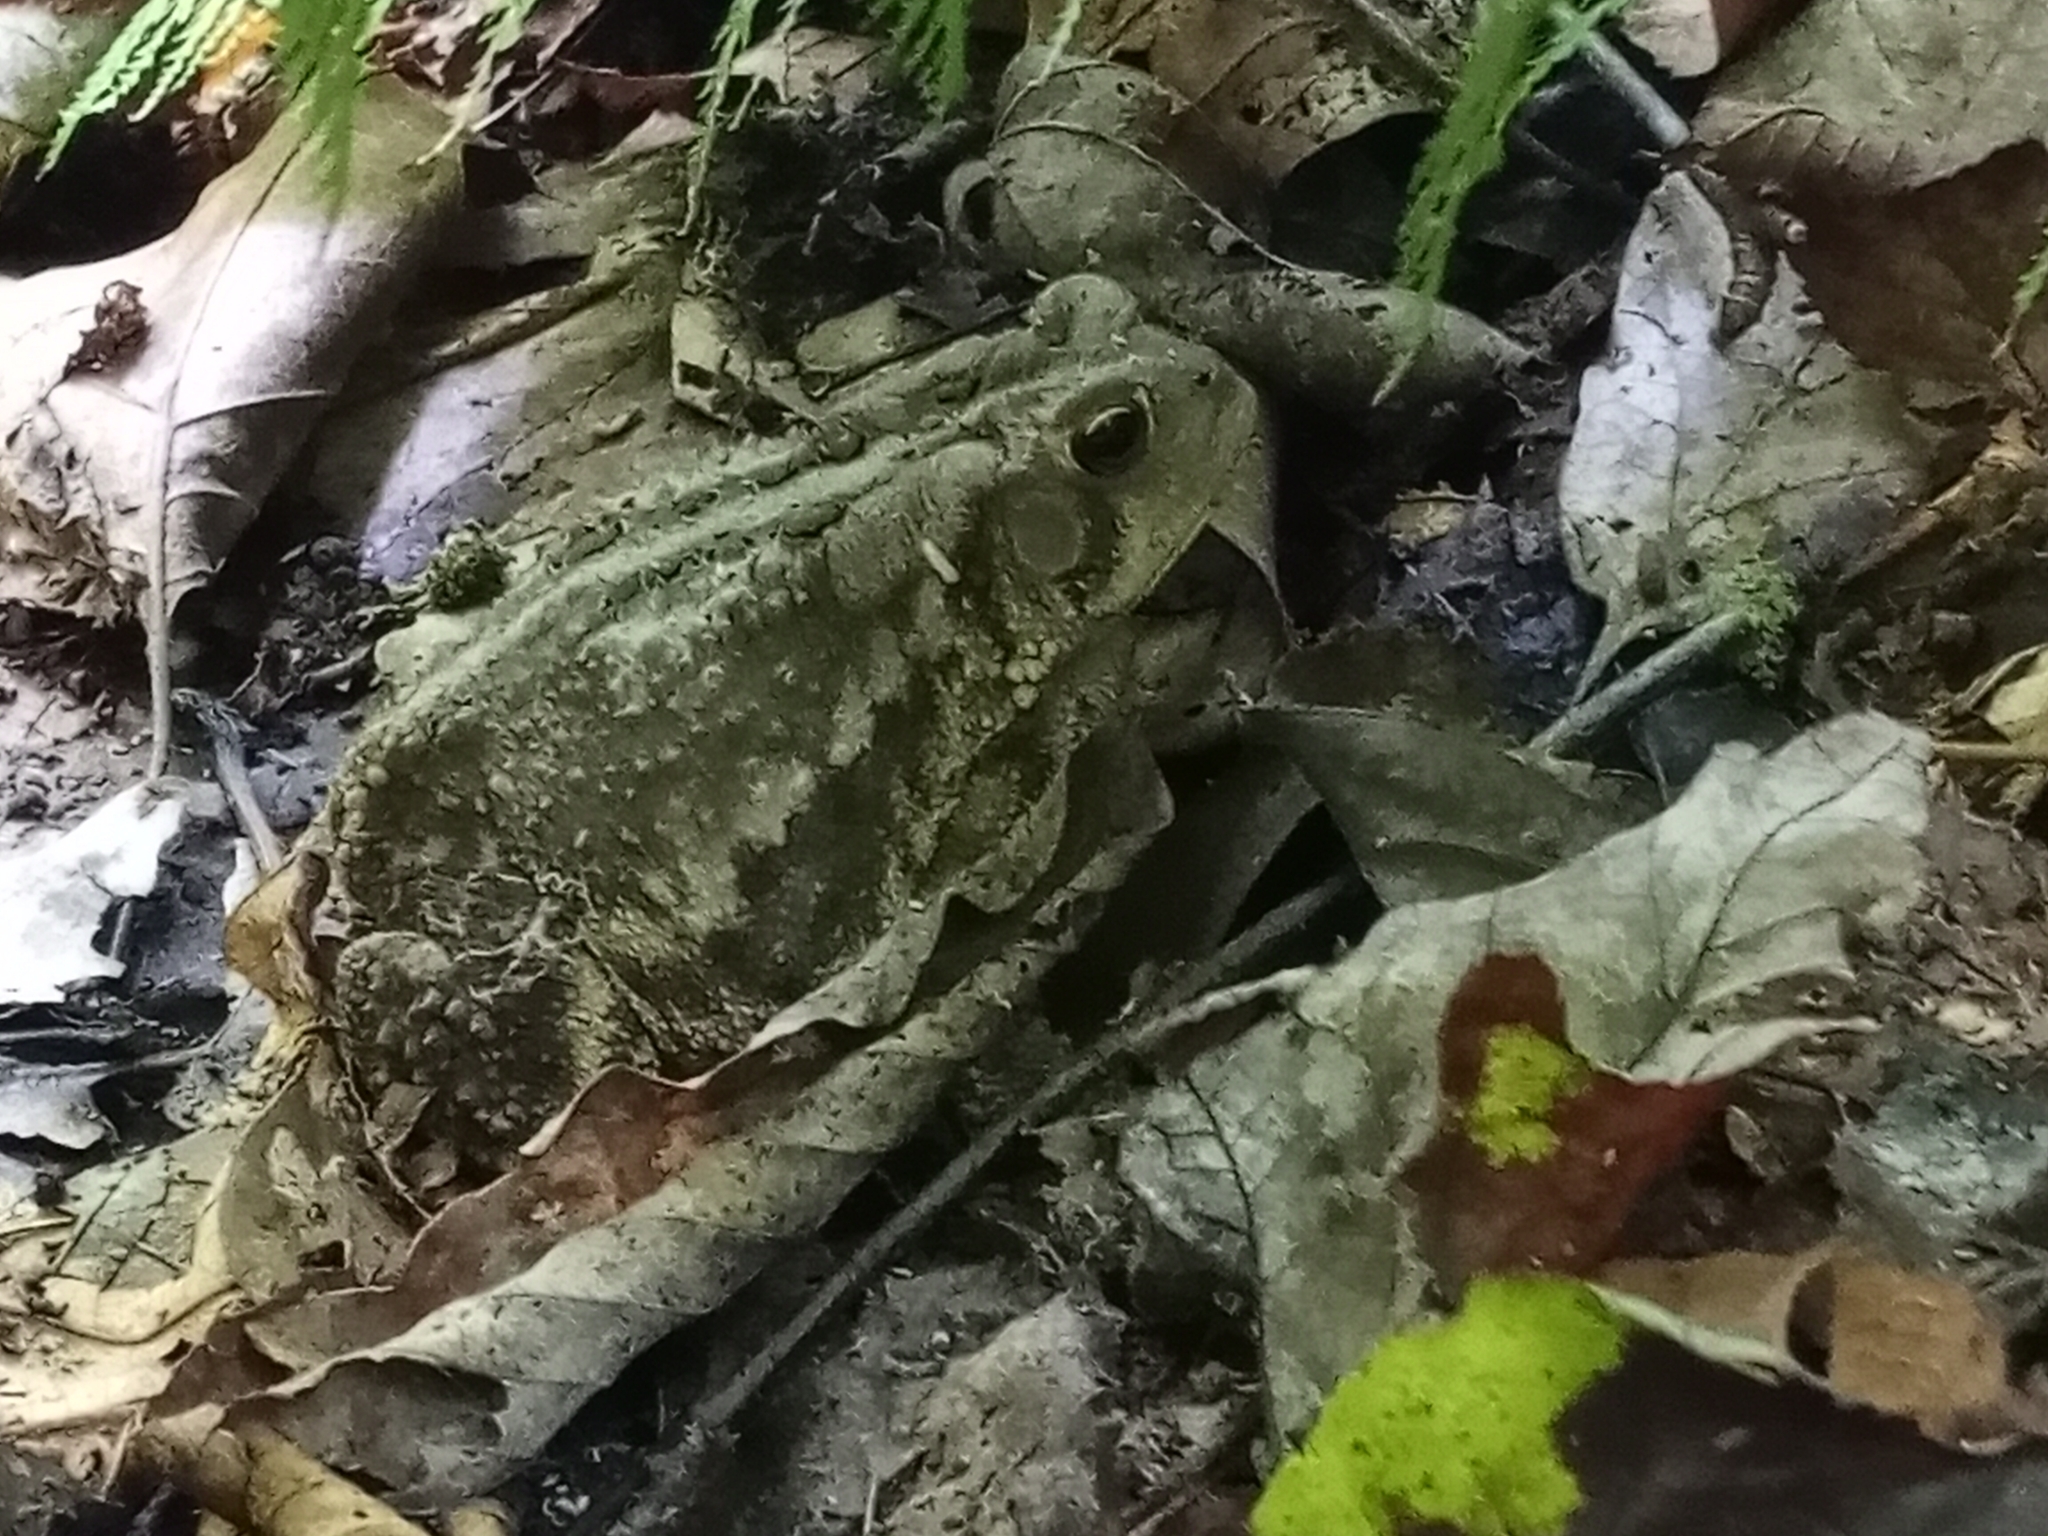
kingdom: Animalia
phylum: Chordata
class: Amphibia
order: Anura
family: Bufonidae
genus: Anaxyrus
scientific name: Anaxyrus americanus
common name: American toad
